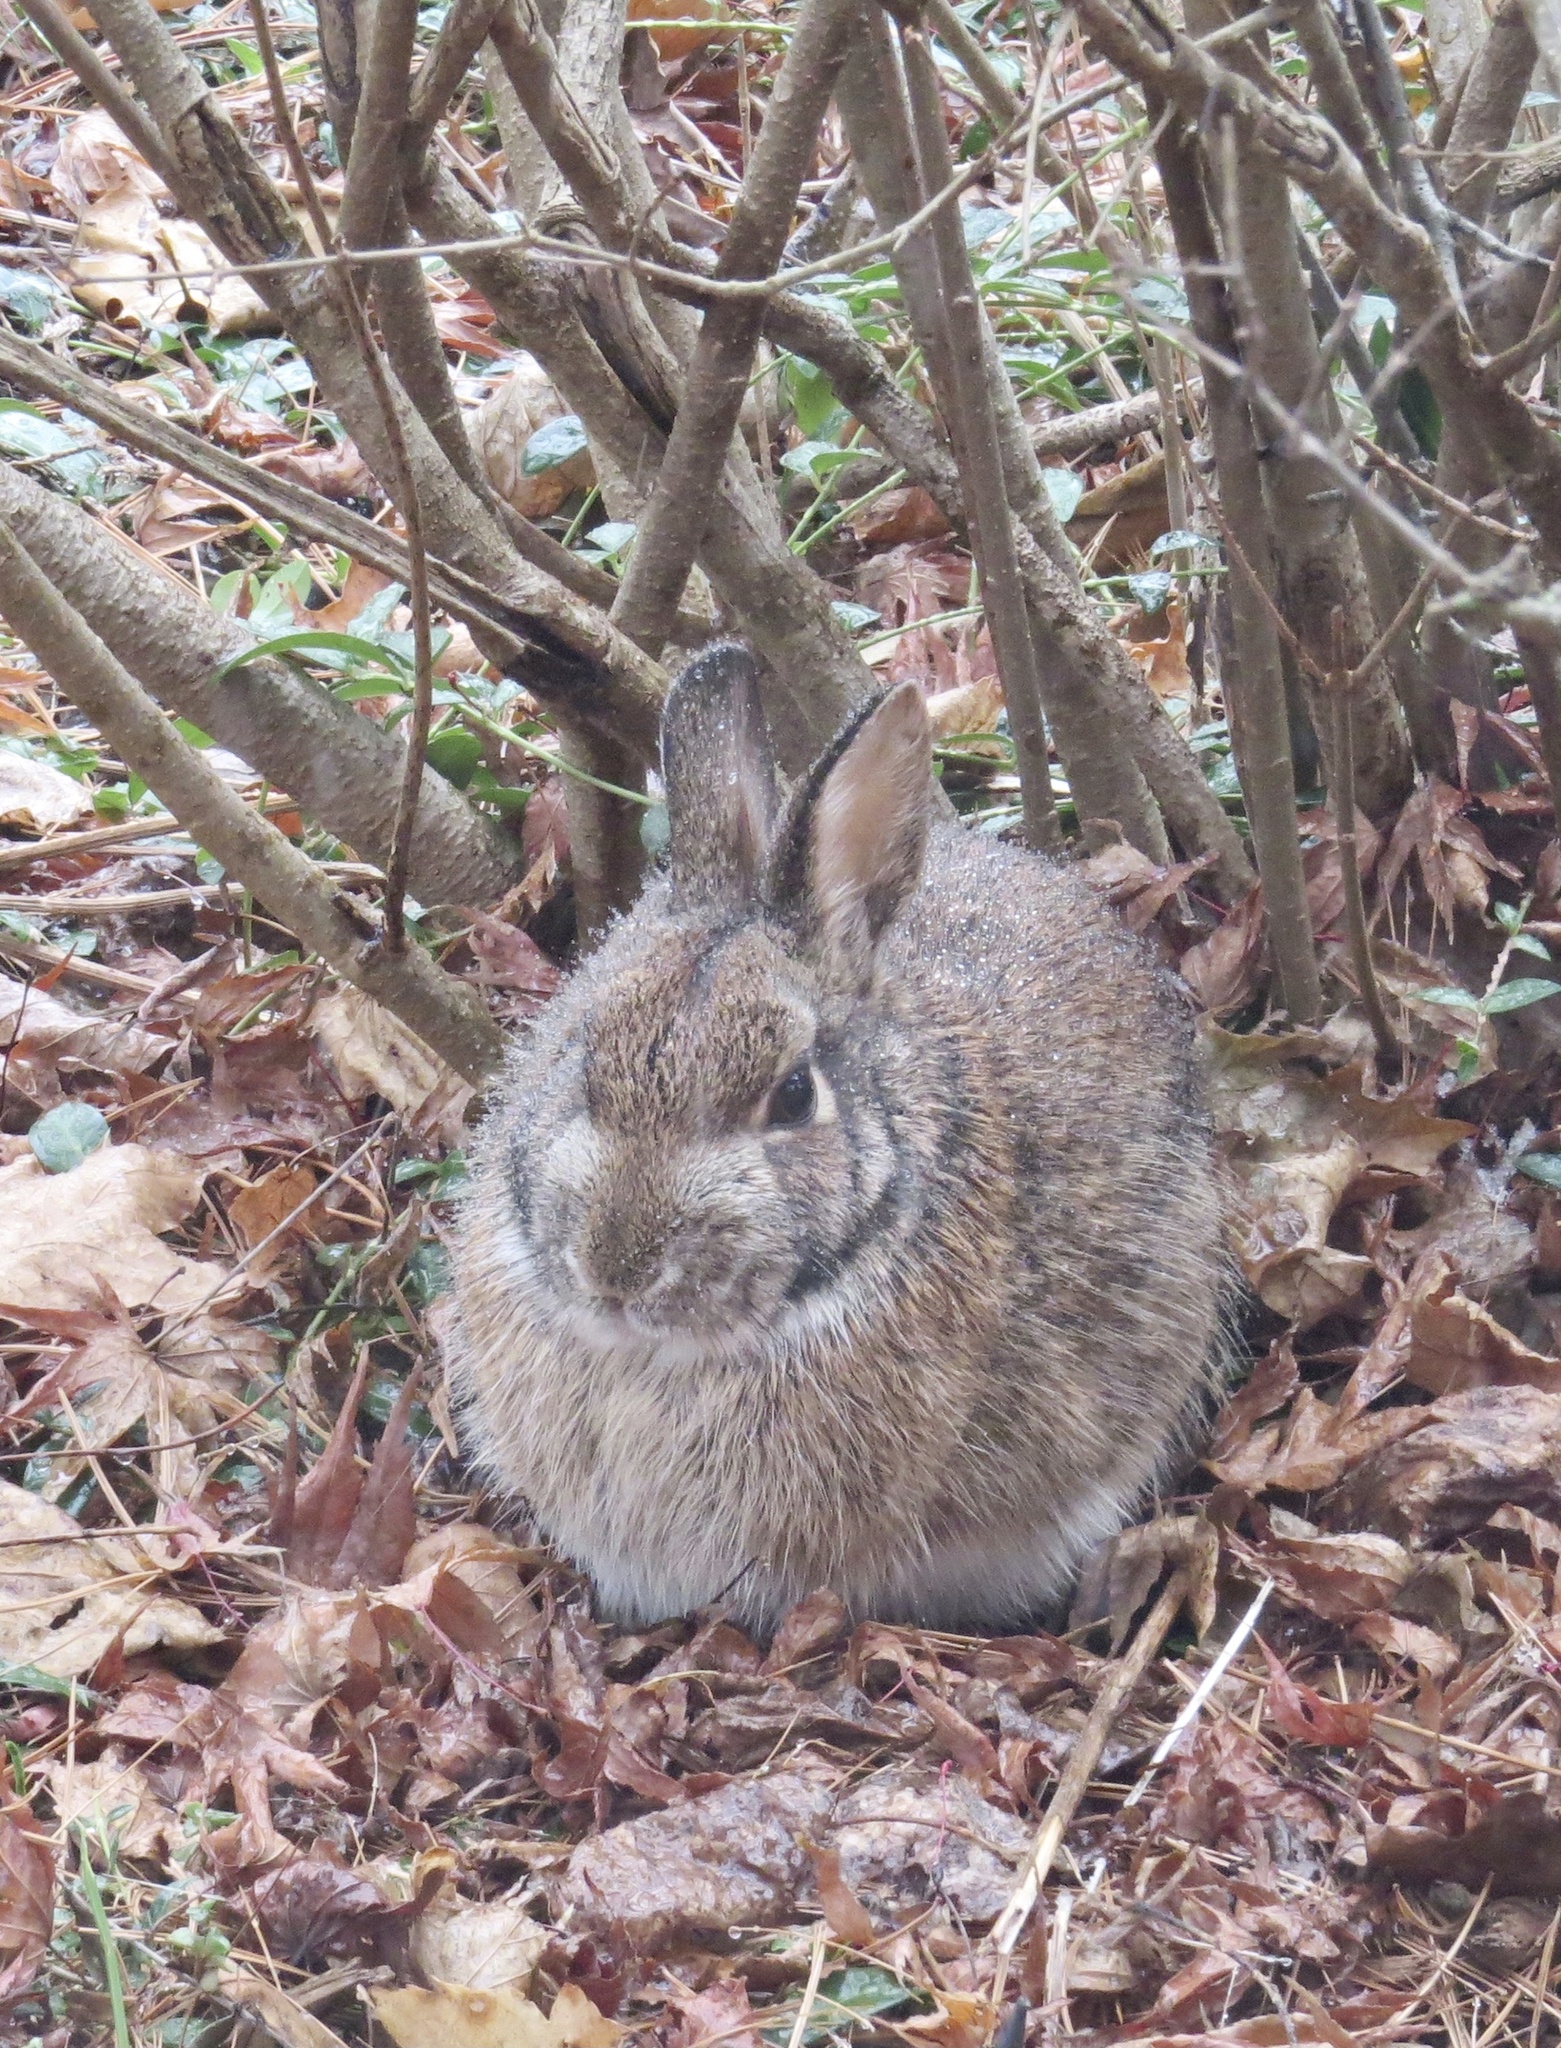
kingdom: Animalia
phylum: Chordata
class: Mammalia
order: Lagomorpha
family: Leporidae
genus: Sylvilagus
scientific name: Sylvilagus floridanus
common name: Eastern cottontail
